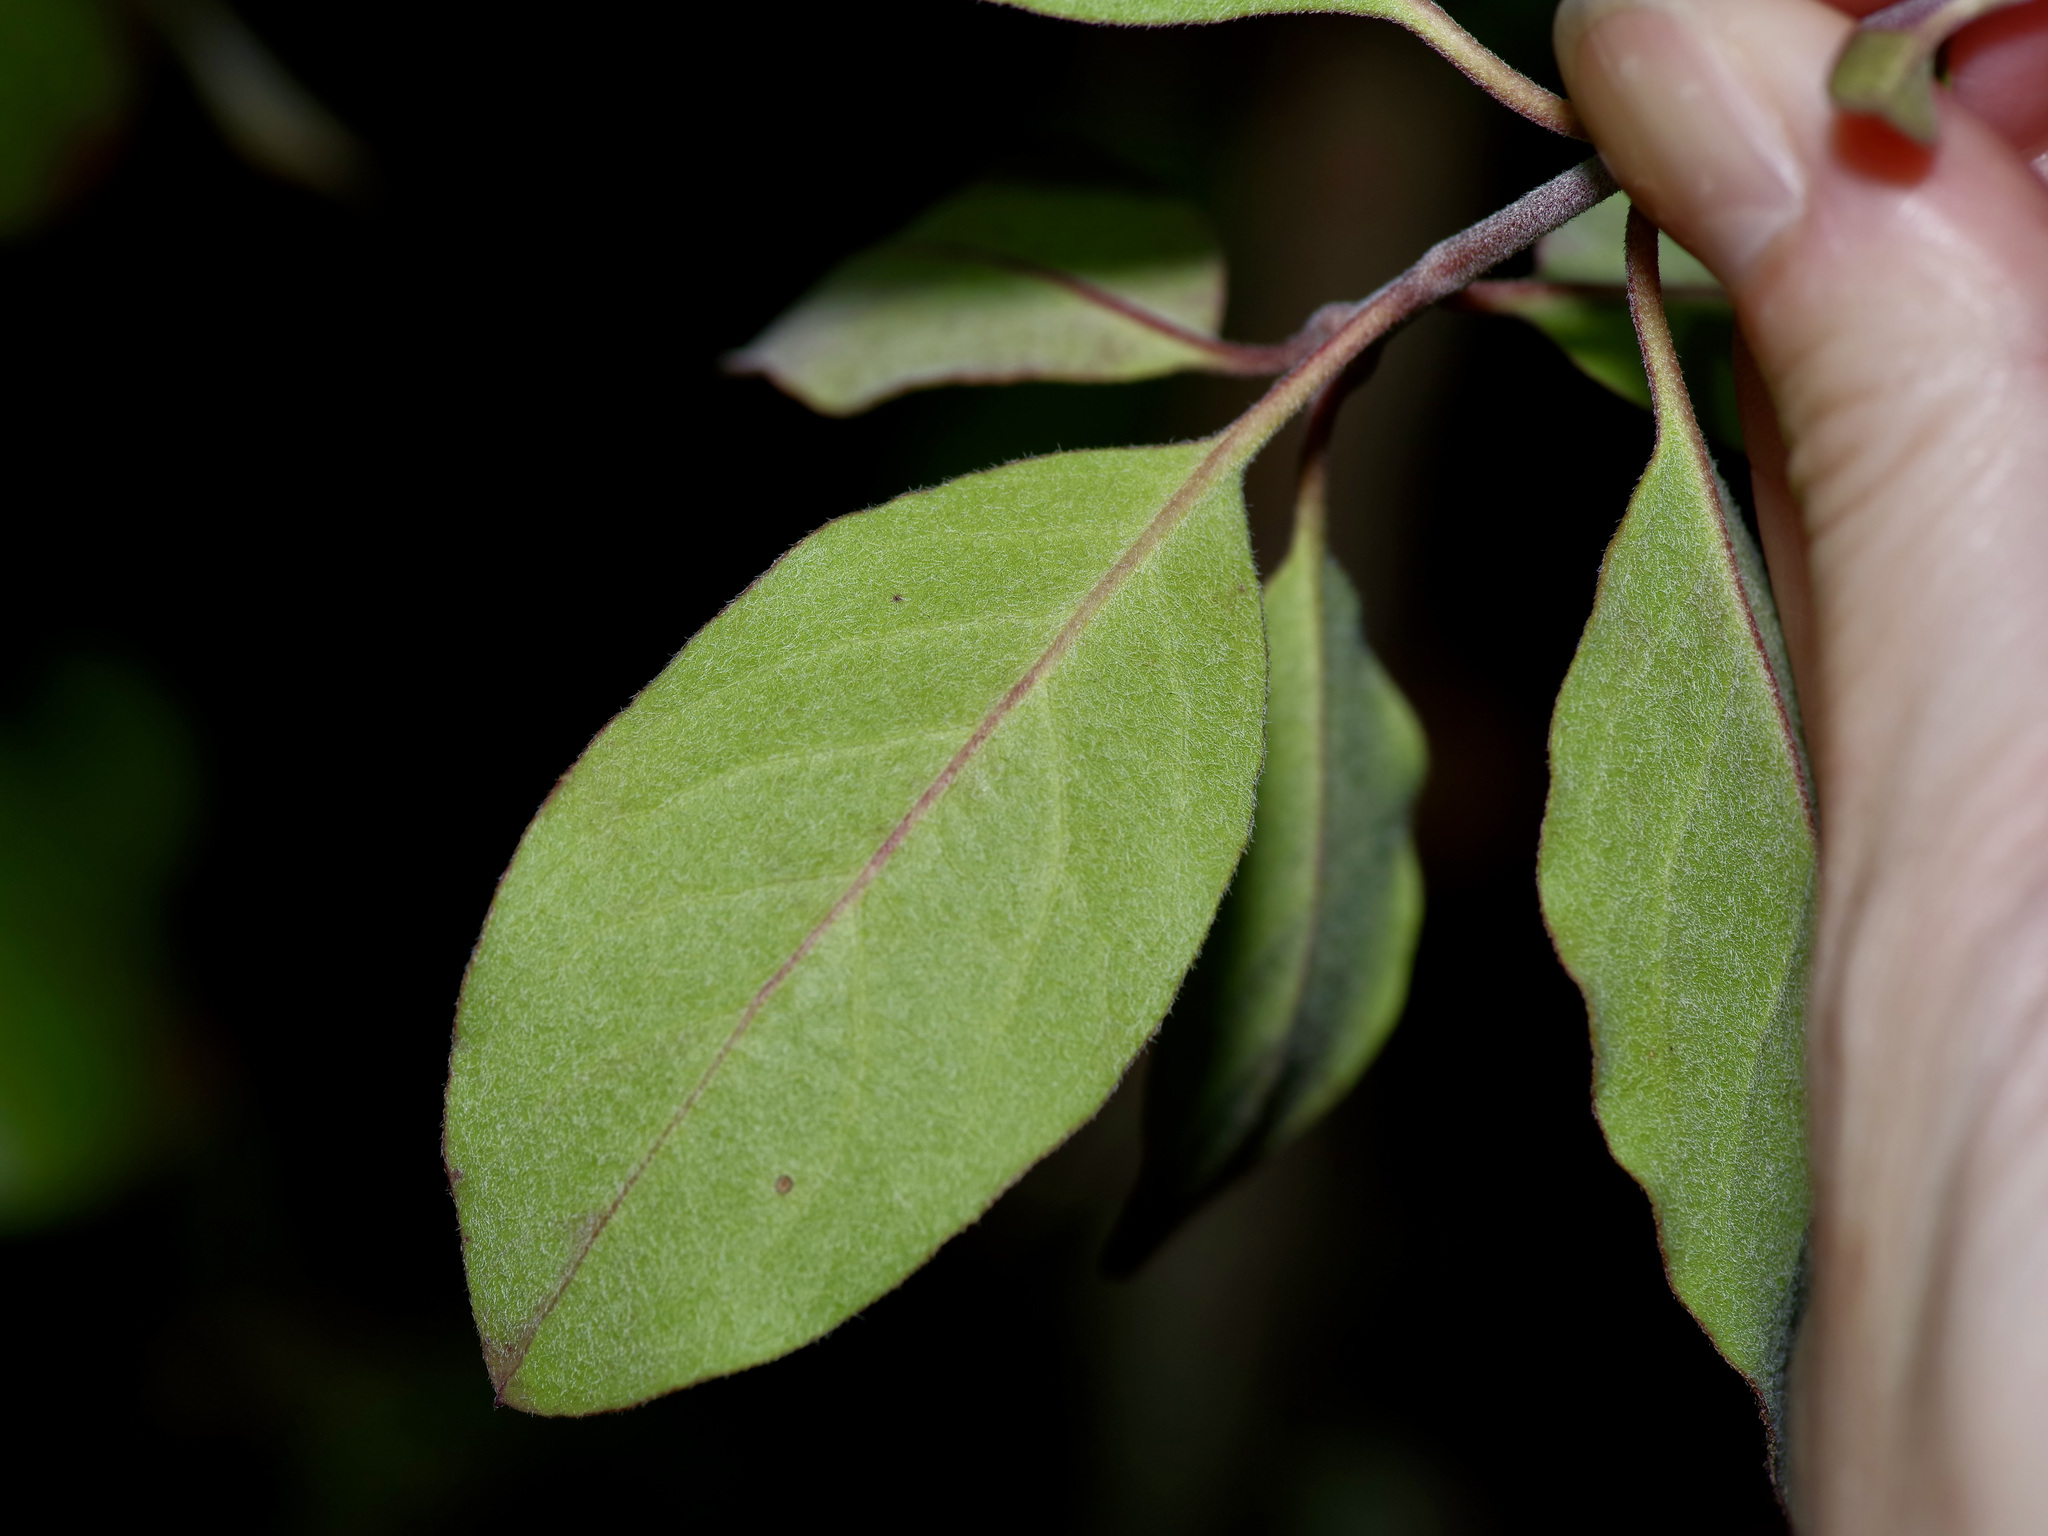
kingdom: Plantae
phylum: Tracheophyta
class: Magnoliopsida
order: Garryales
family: Garryaceae
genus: Garrya
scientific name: Garrya lindheimeri
